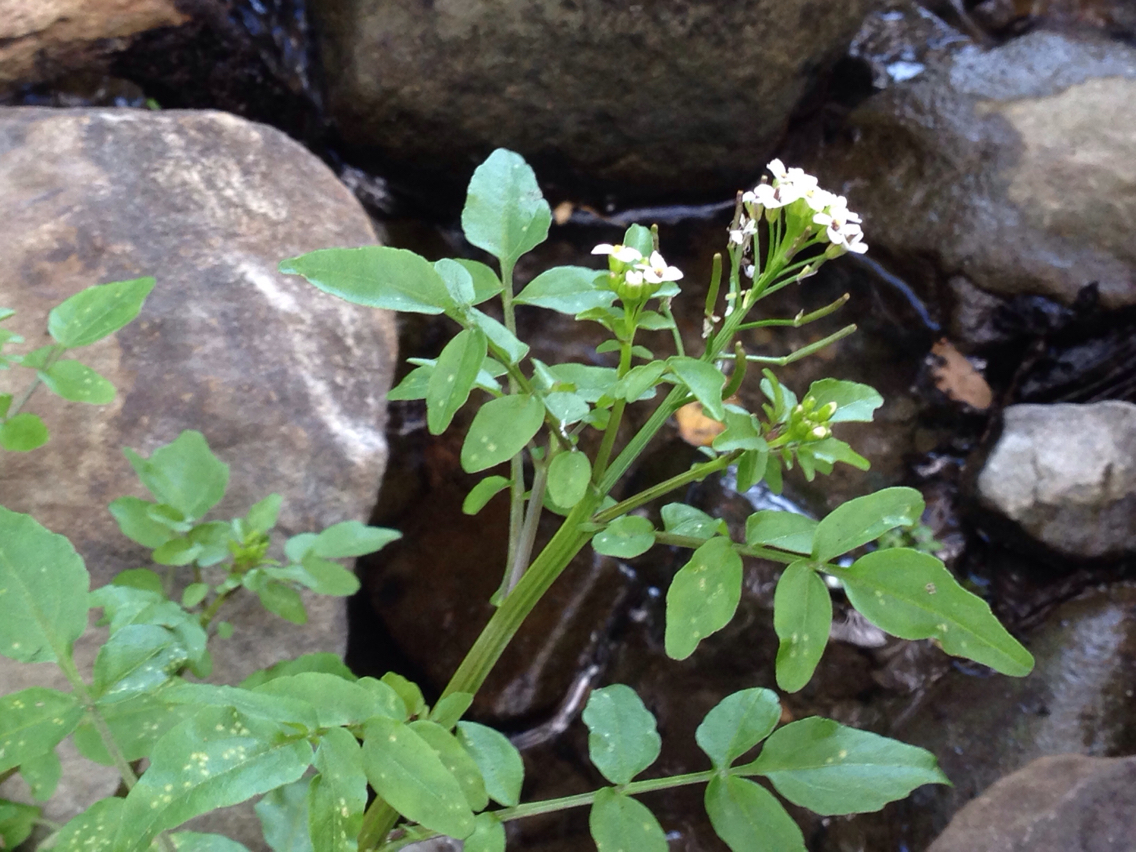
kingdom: Plantae
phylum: Tracheophyta
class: Magnoliopsida
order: Brassicales
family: Brassicaceae
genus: Nasturtium
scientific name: Nasturtium officinale
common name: Watercress
